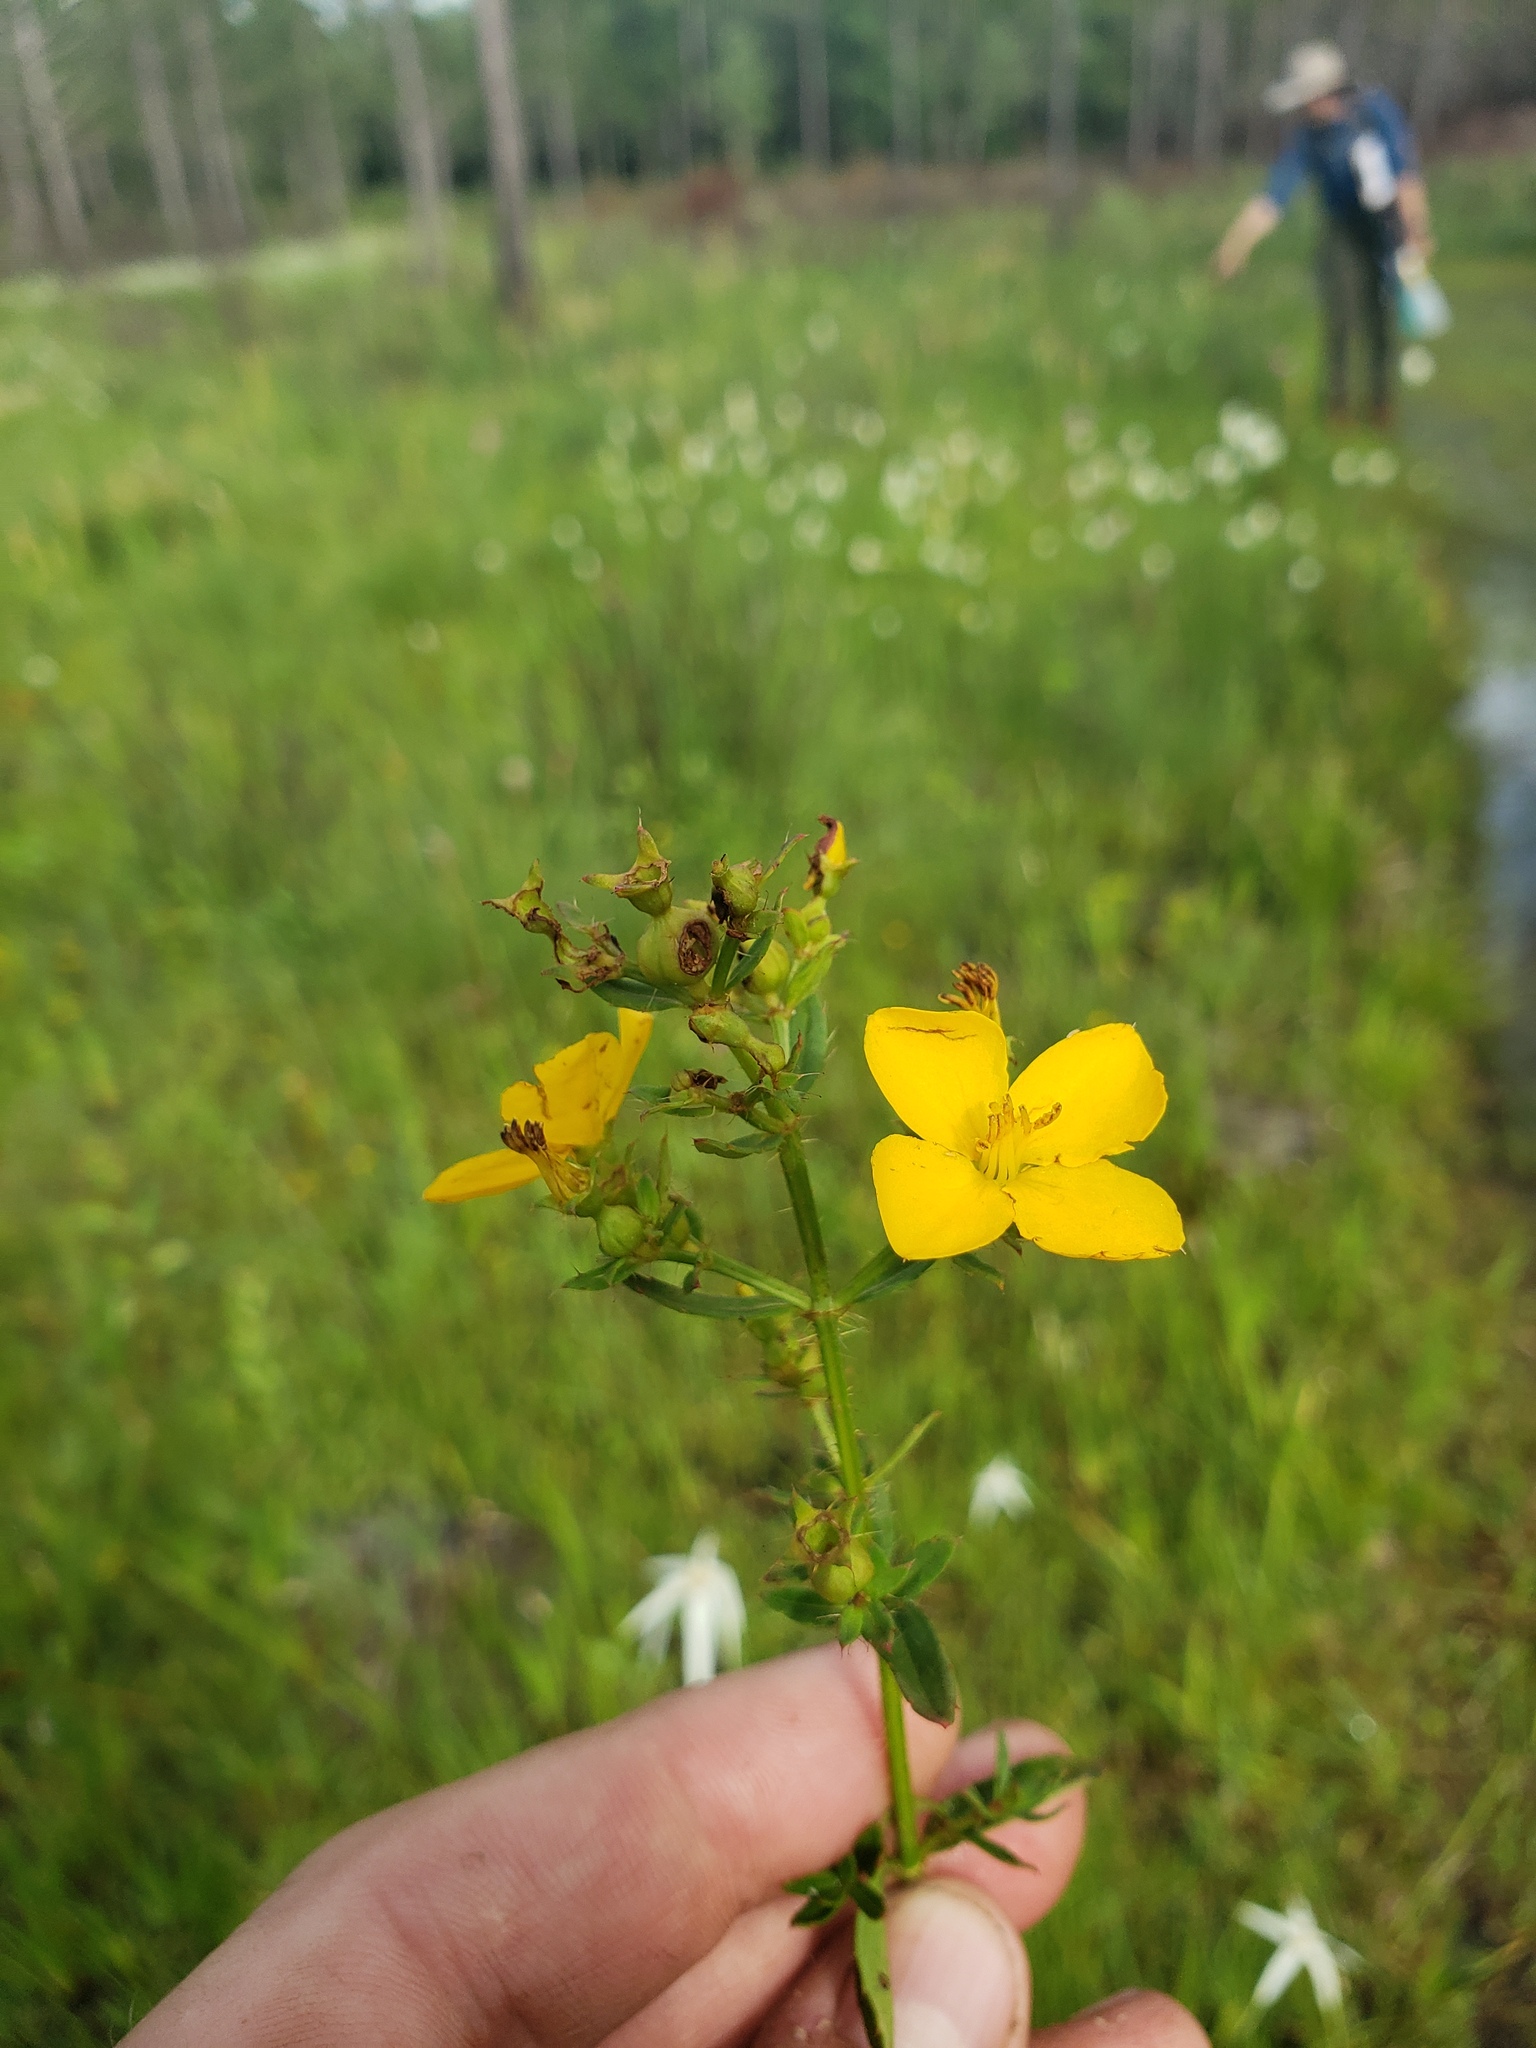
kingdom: Plantae
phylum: Tracheophyta
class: Magnoliopsida
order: Myrtales
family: Melastomataceae
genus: Rhexia
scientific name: Rhexia lutea
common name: Golden meadow-beauty
